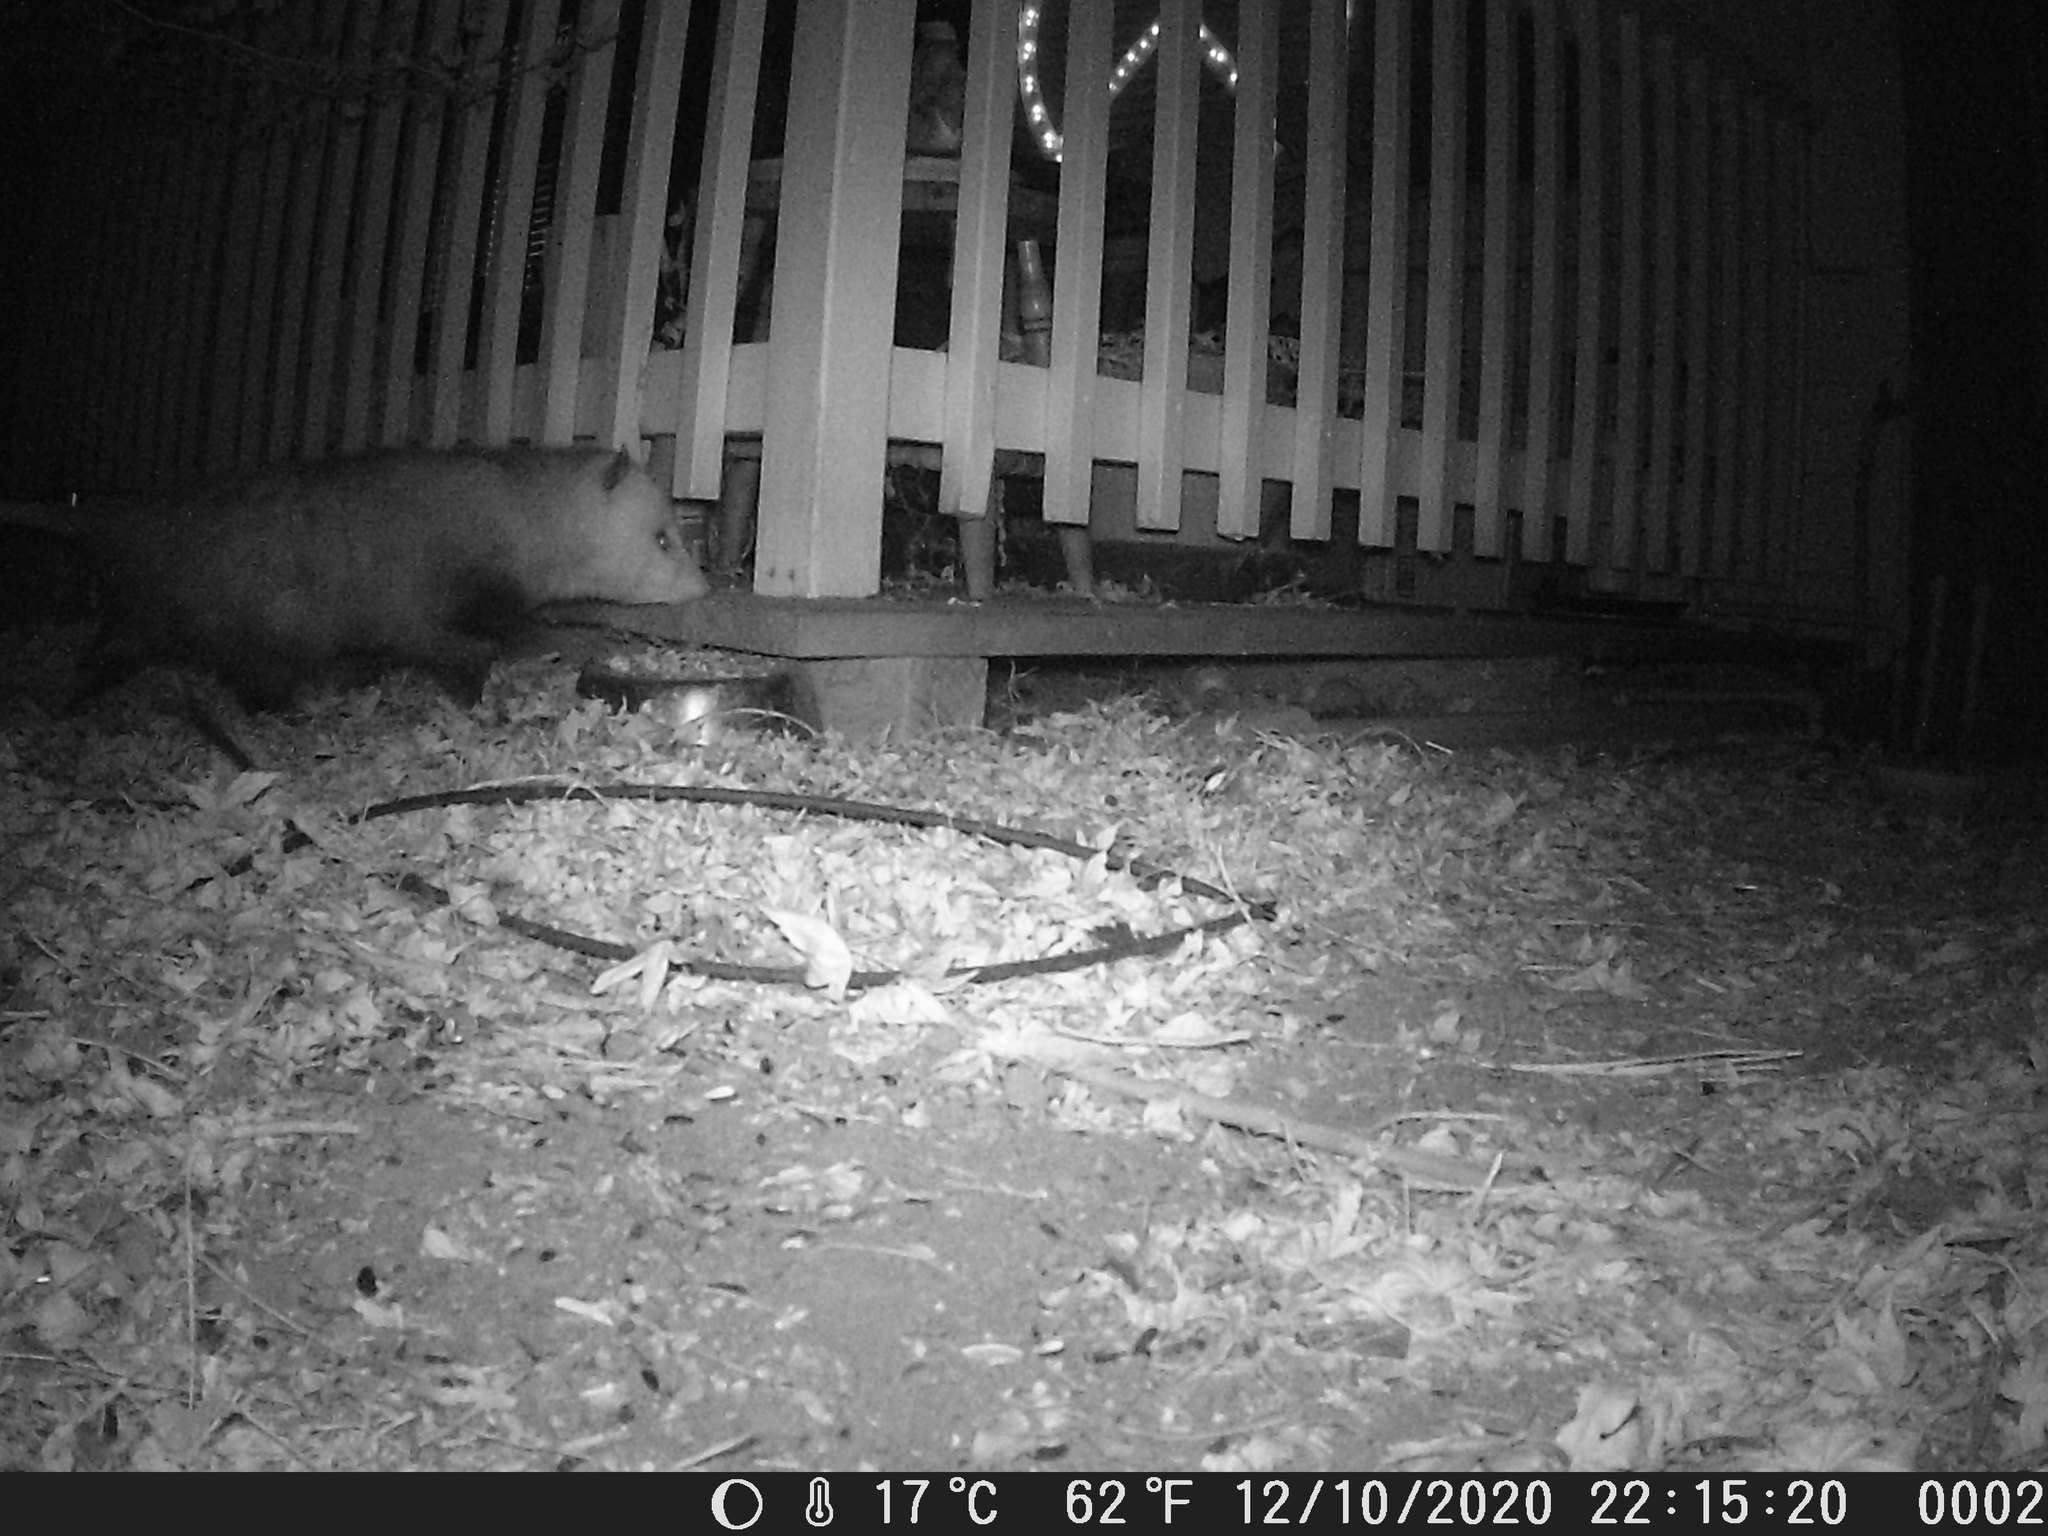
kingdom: Animalia
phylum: Chordata
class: Mammalia
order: Didelphimorphia
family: Didelphidae
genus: Didelphis
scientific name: Didelphis virginiana
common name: Virginia opossum
